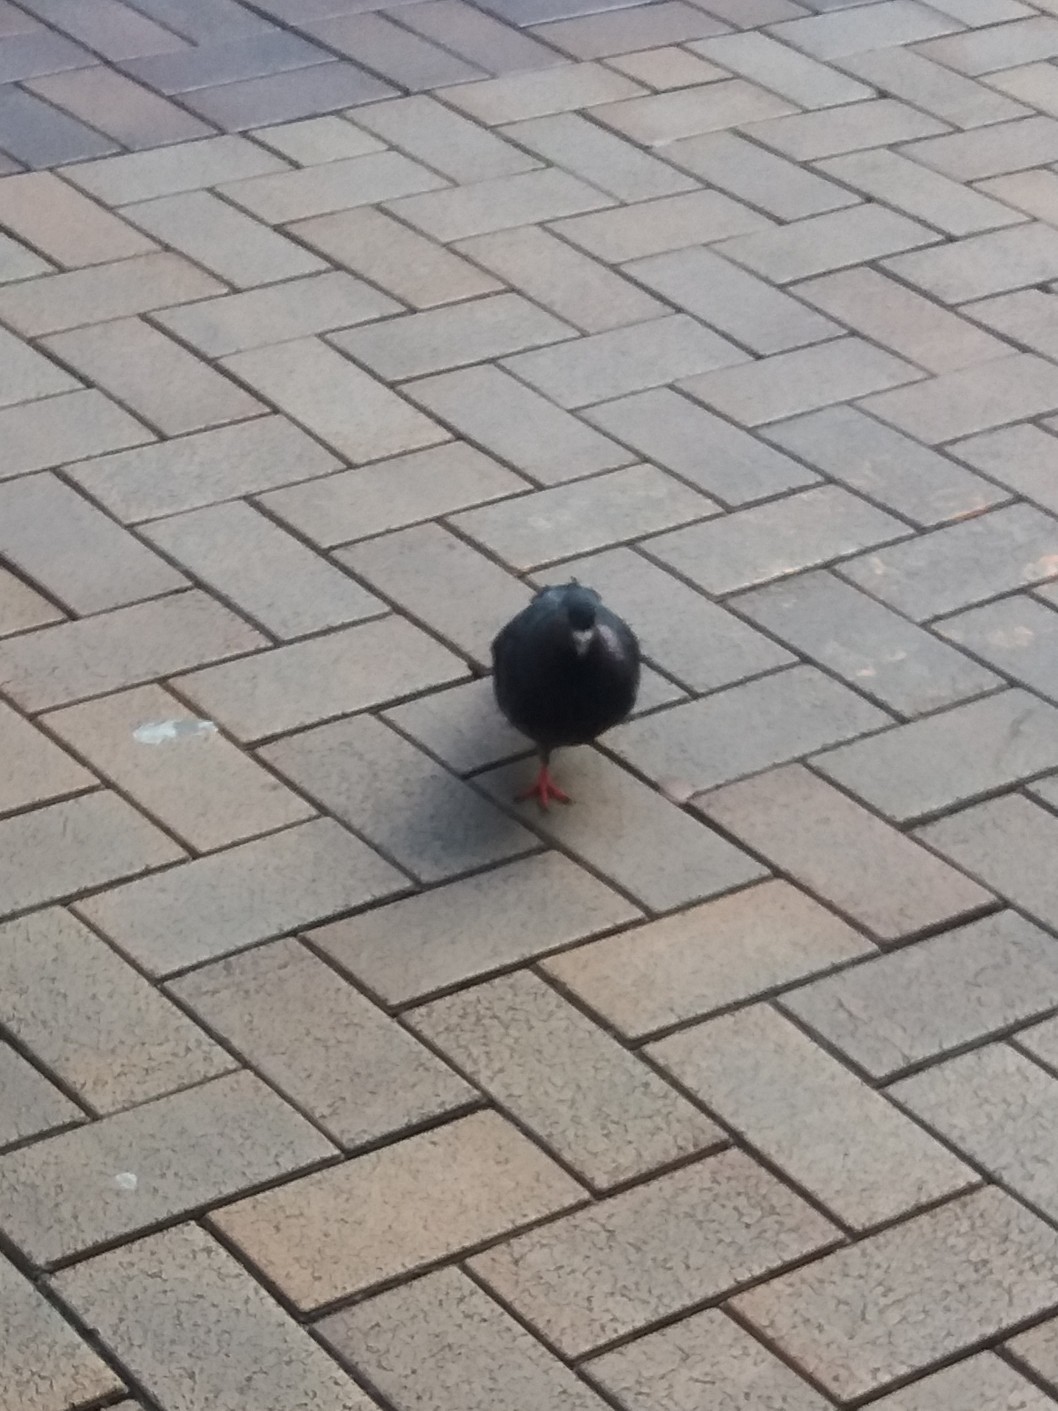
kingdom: Animalia
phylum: Chordata
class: Aves
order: Columbiformes
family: Columbidae
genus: Columba
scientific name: Columba livia
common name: Rock pigeon
